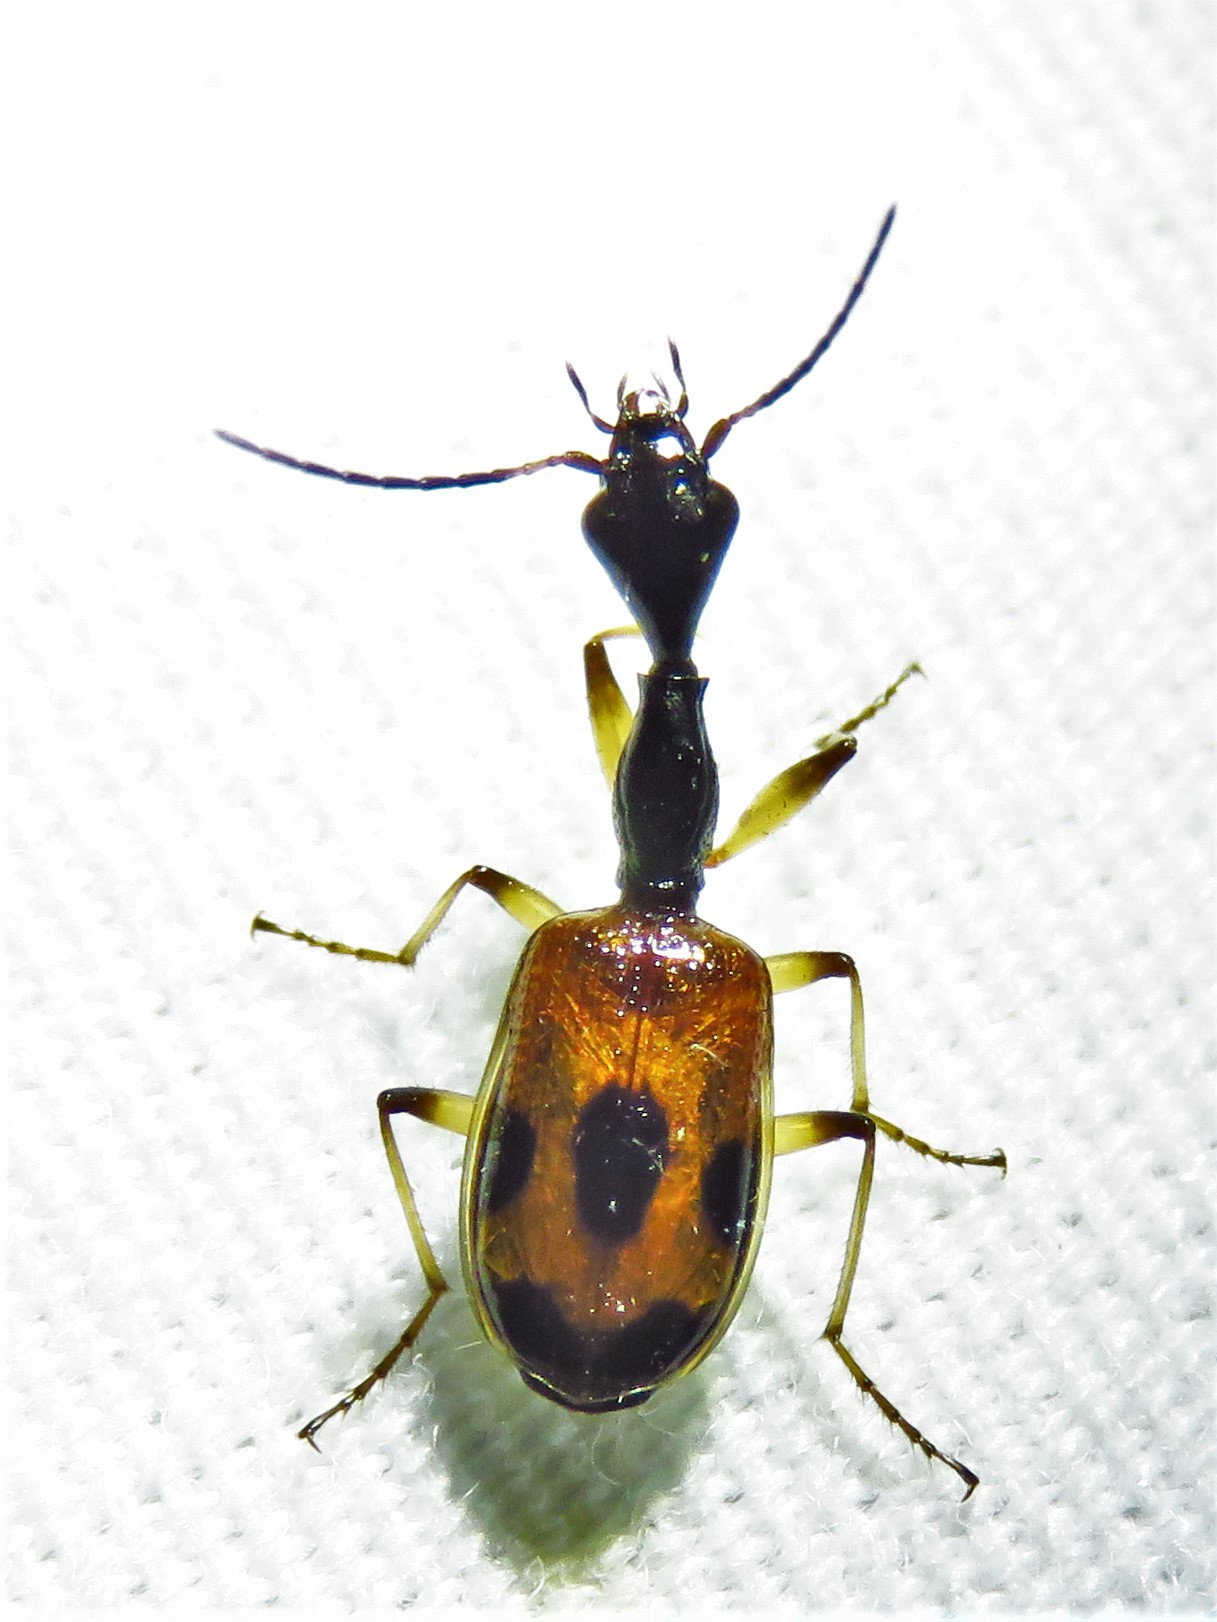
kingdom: Animalia
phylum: Arthropoda
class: Insecta
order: Coleoptera
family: Carabidae
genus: Colliuris
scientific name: Colliuris pensylvanica
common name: Long-necked ground beetle
